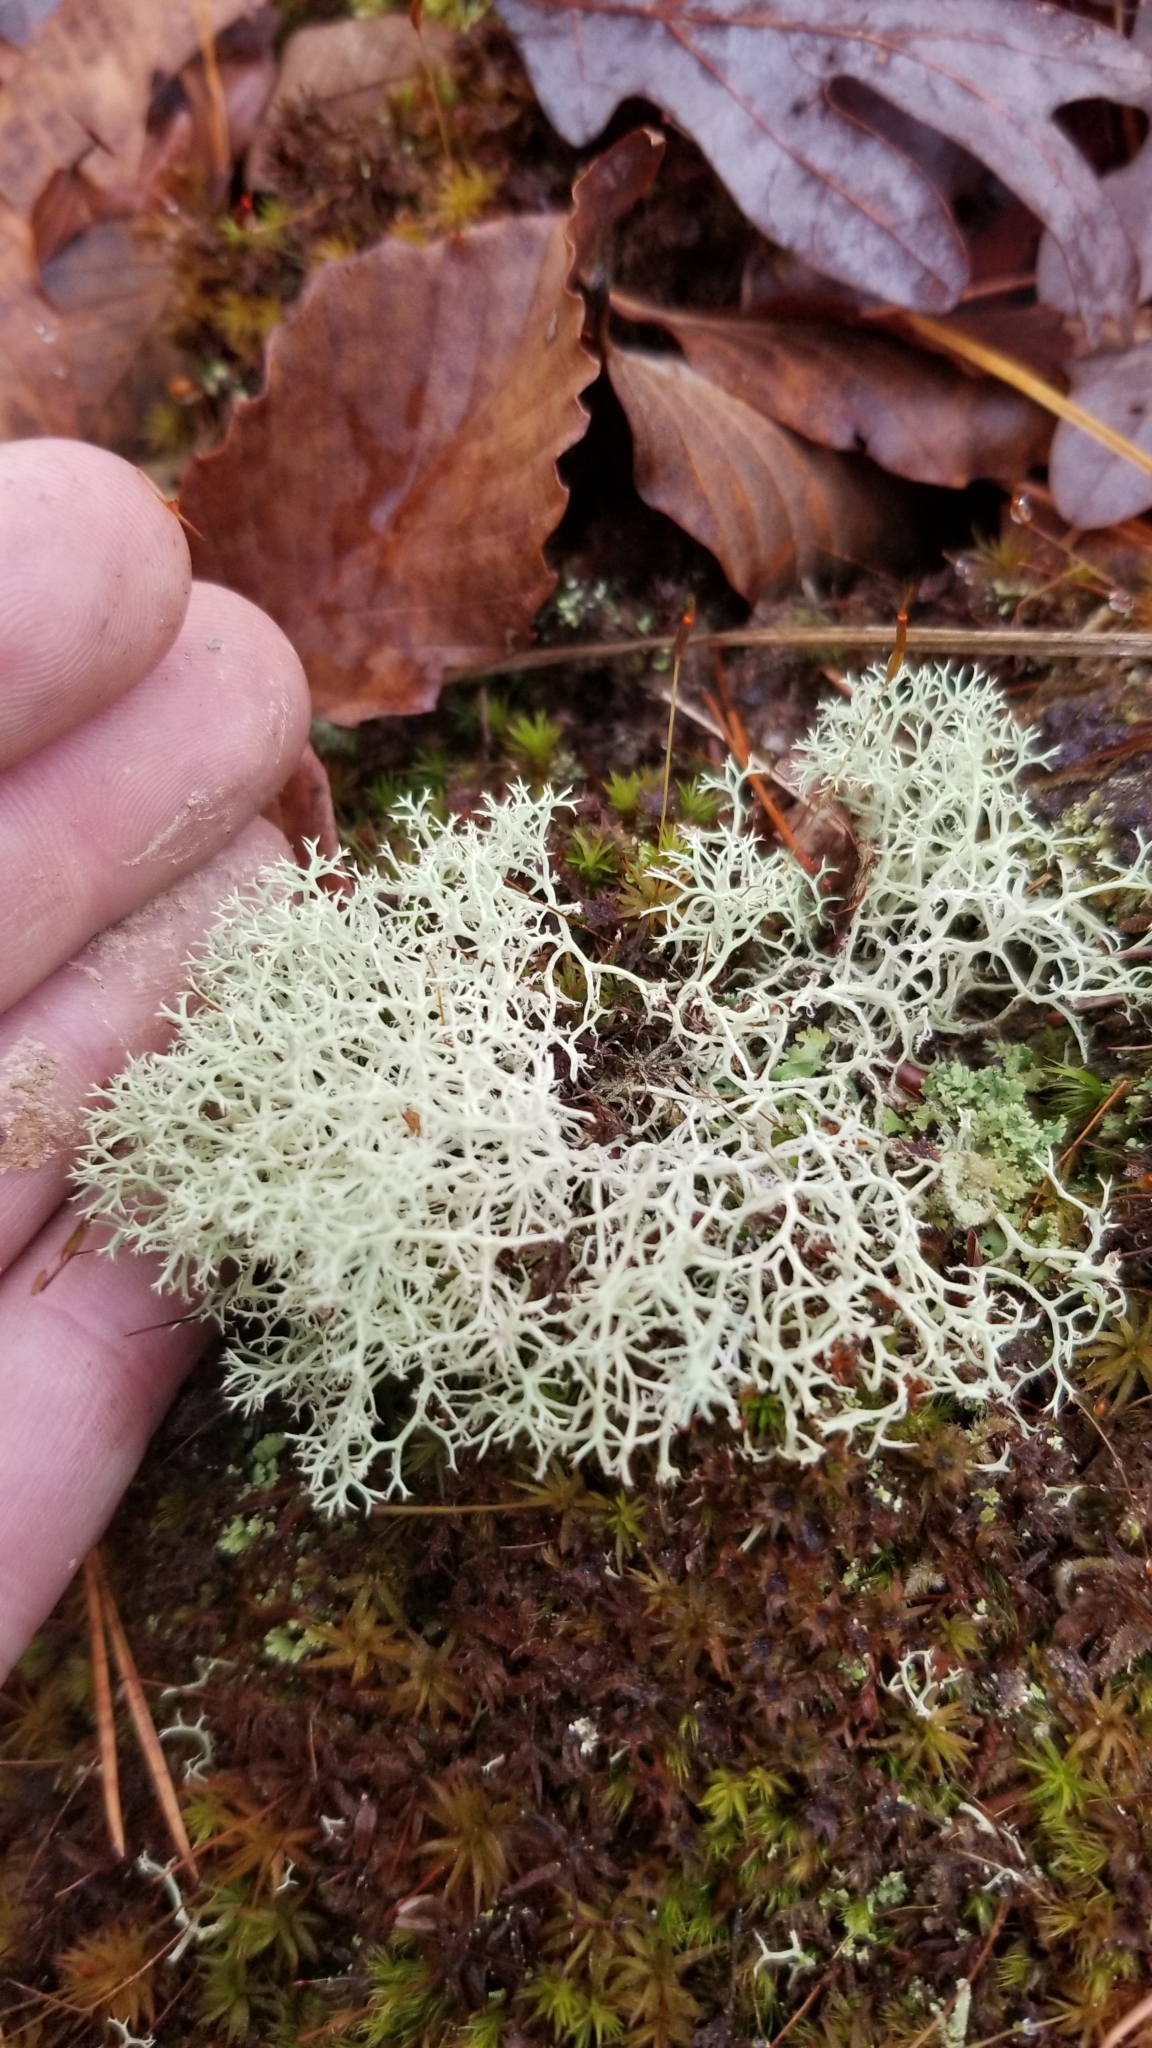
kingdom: Fungi
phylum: Ascomycota
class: Lecanoromycetes
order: Lecanorales
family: Cladoniaceae
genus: Cladonia
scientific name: Cladonia subtenuis
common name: Dixie reindeer lichen
